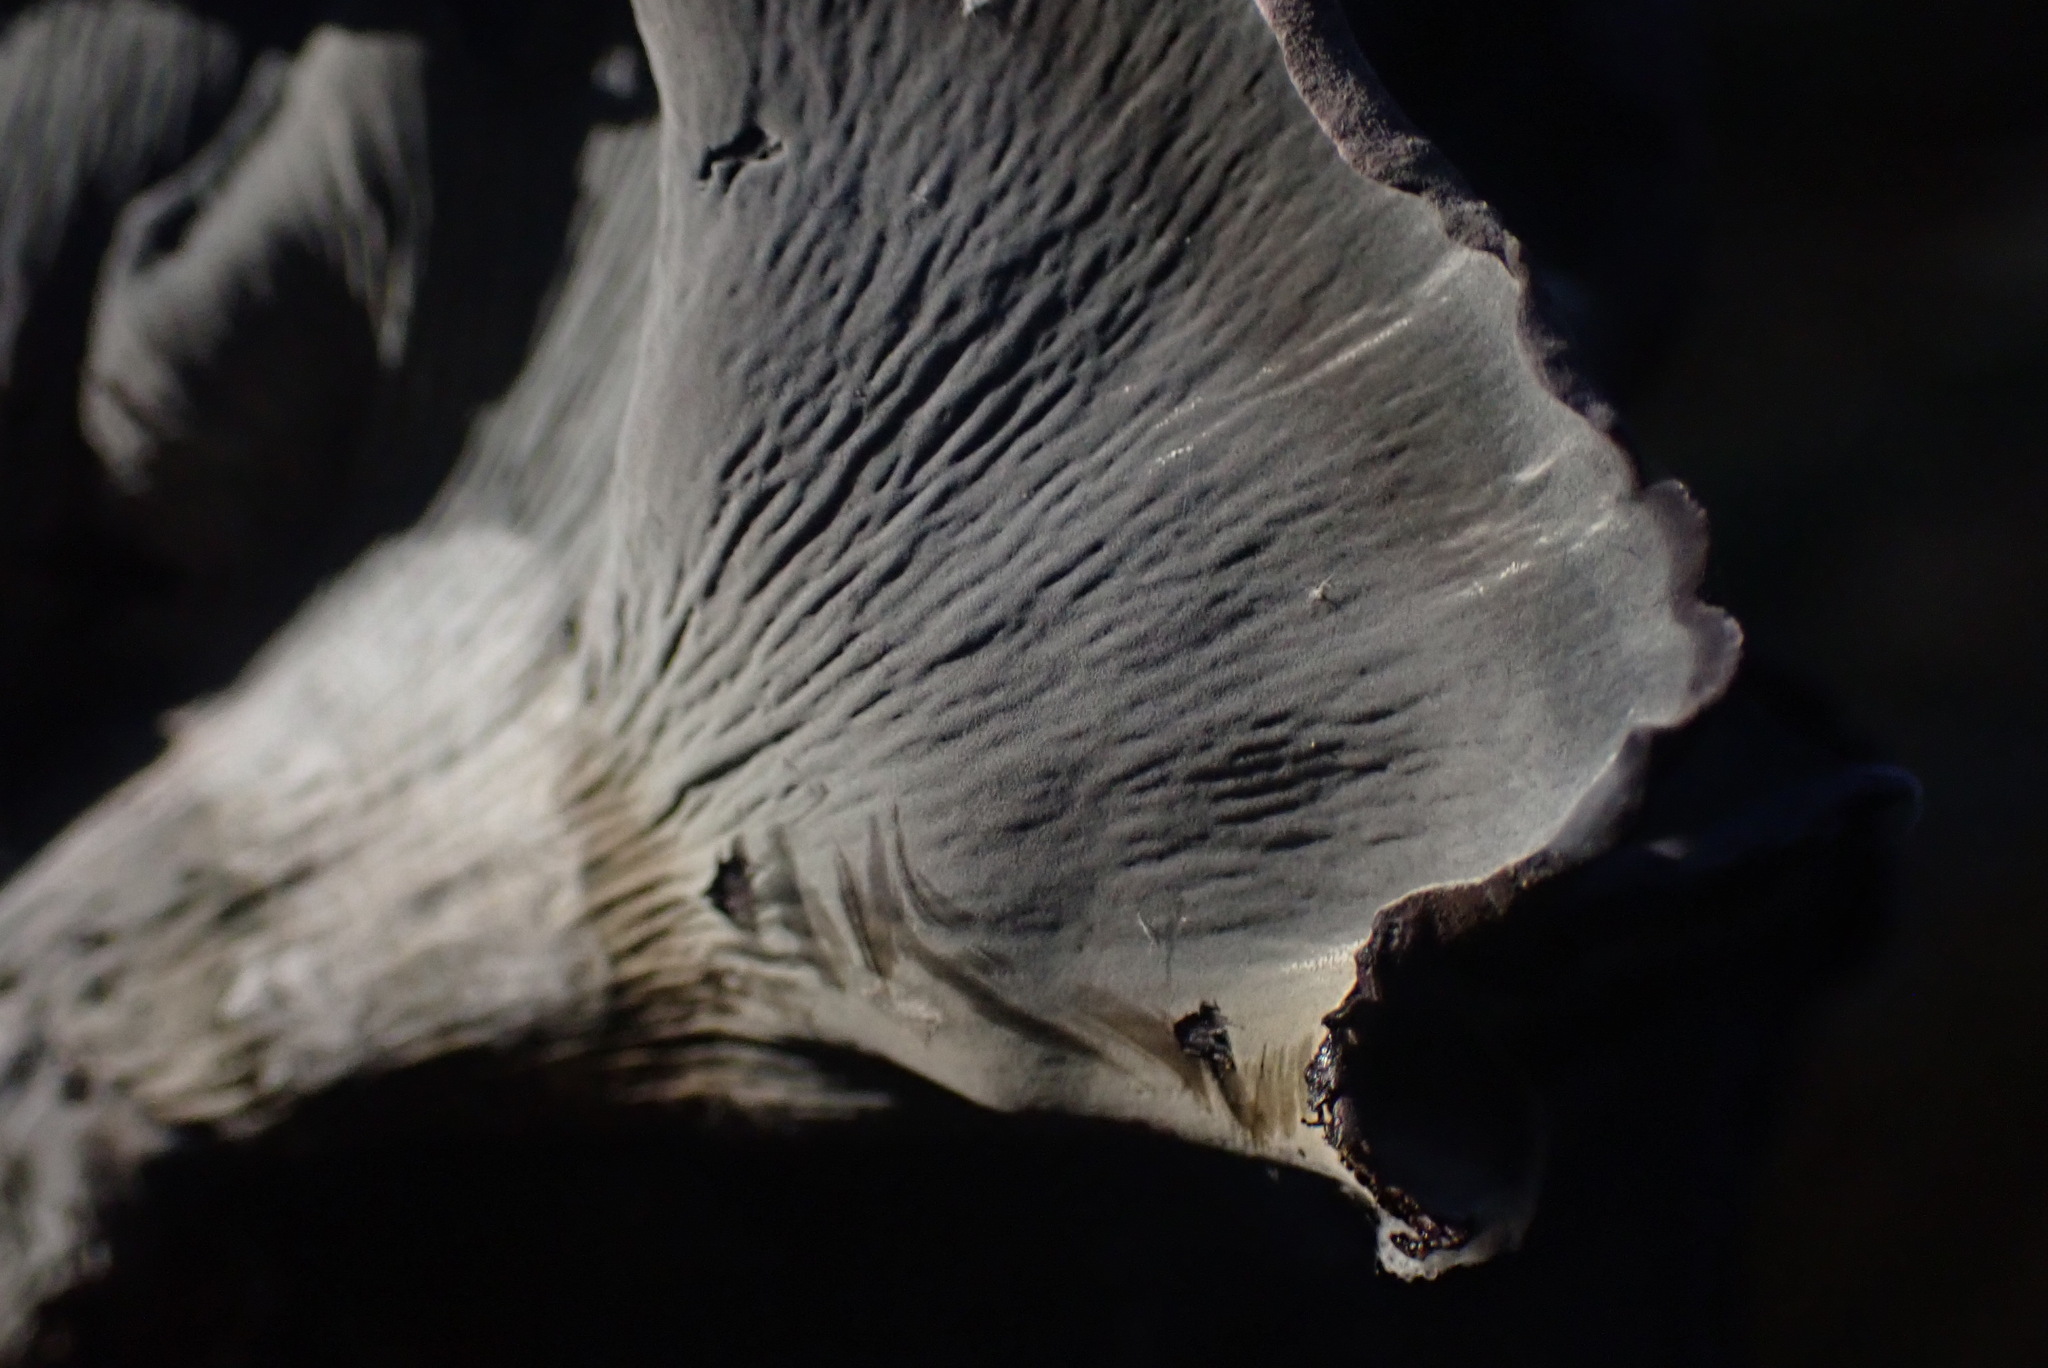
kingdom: Fungi
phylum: Basidiomycota
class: Agaricomycetes
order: Thelephorales
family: Thelephoraceae
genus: Polyozellus
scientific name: Polyozellus atrolazulinus
